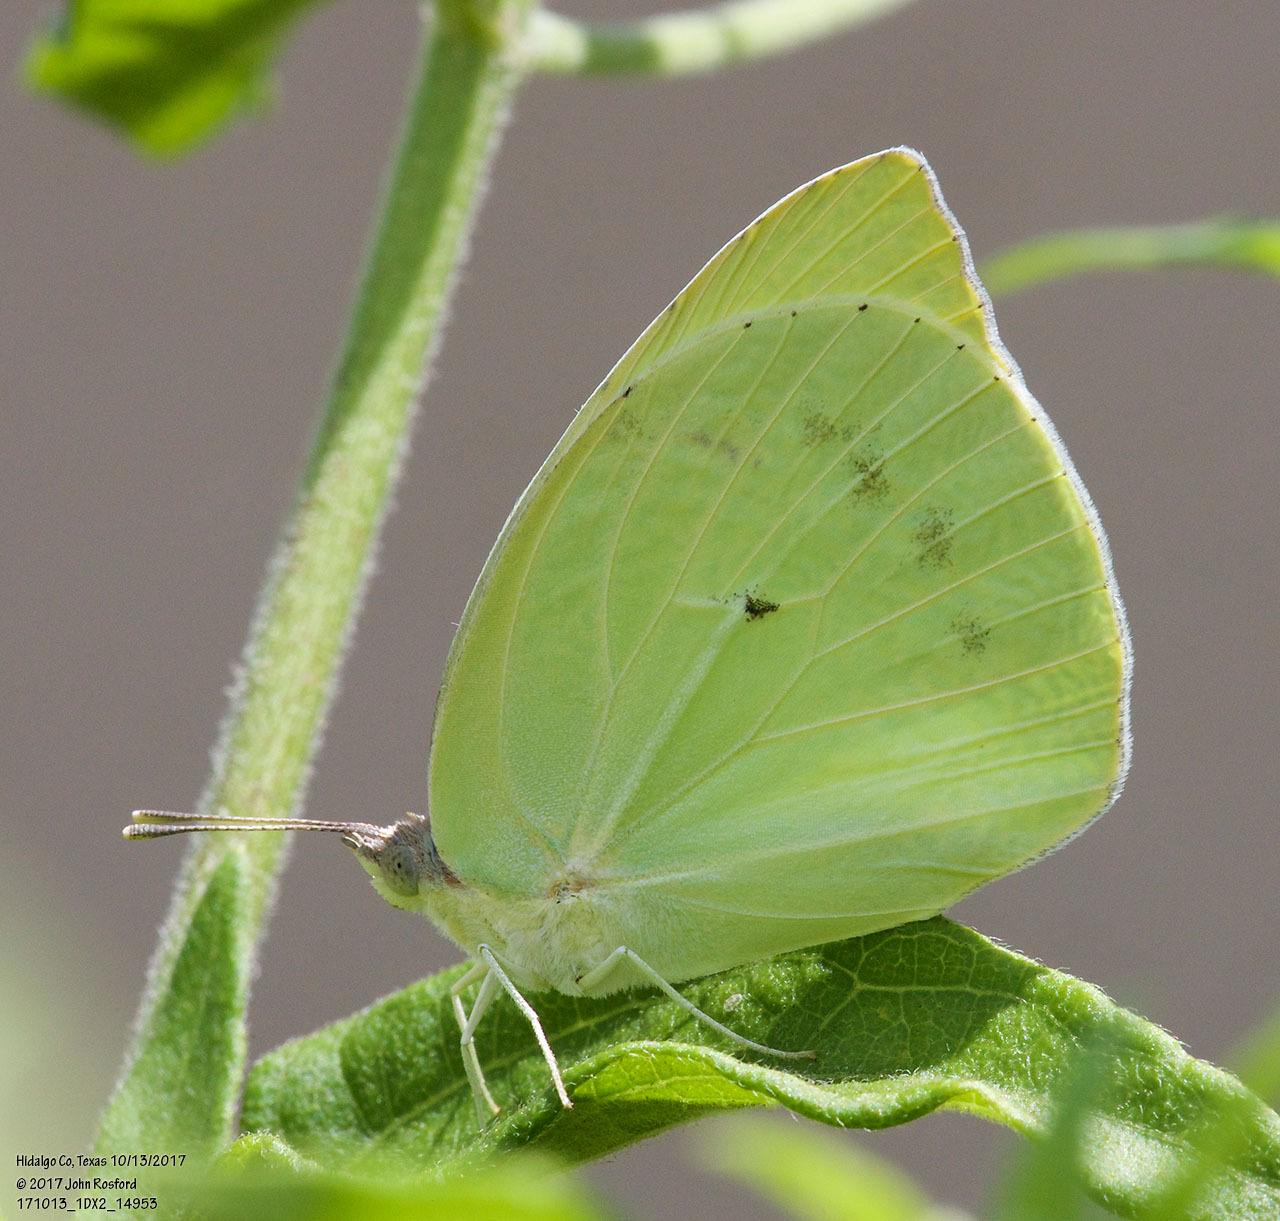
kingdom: Animalia
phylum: Arthropoda
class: Insecta
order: Lepidoptera
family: Pieridae
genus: Kricogonia
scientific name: Kricogonia lyside
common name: Guayacan sulphur,
